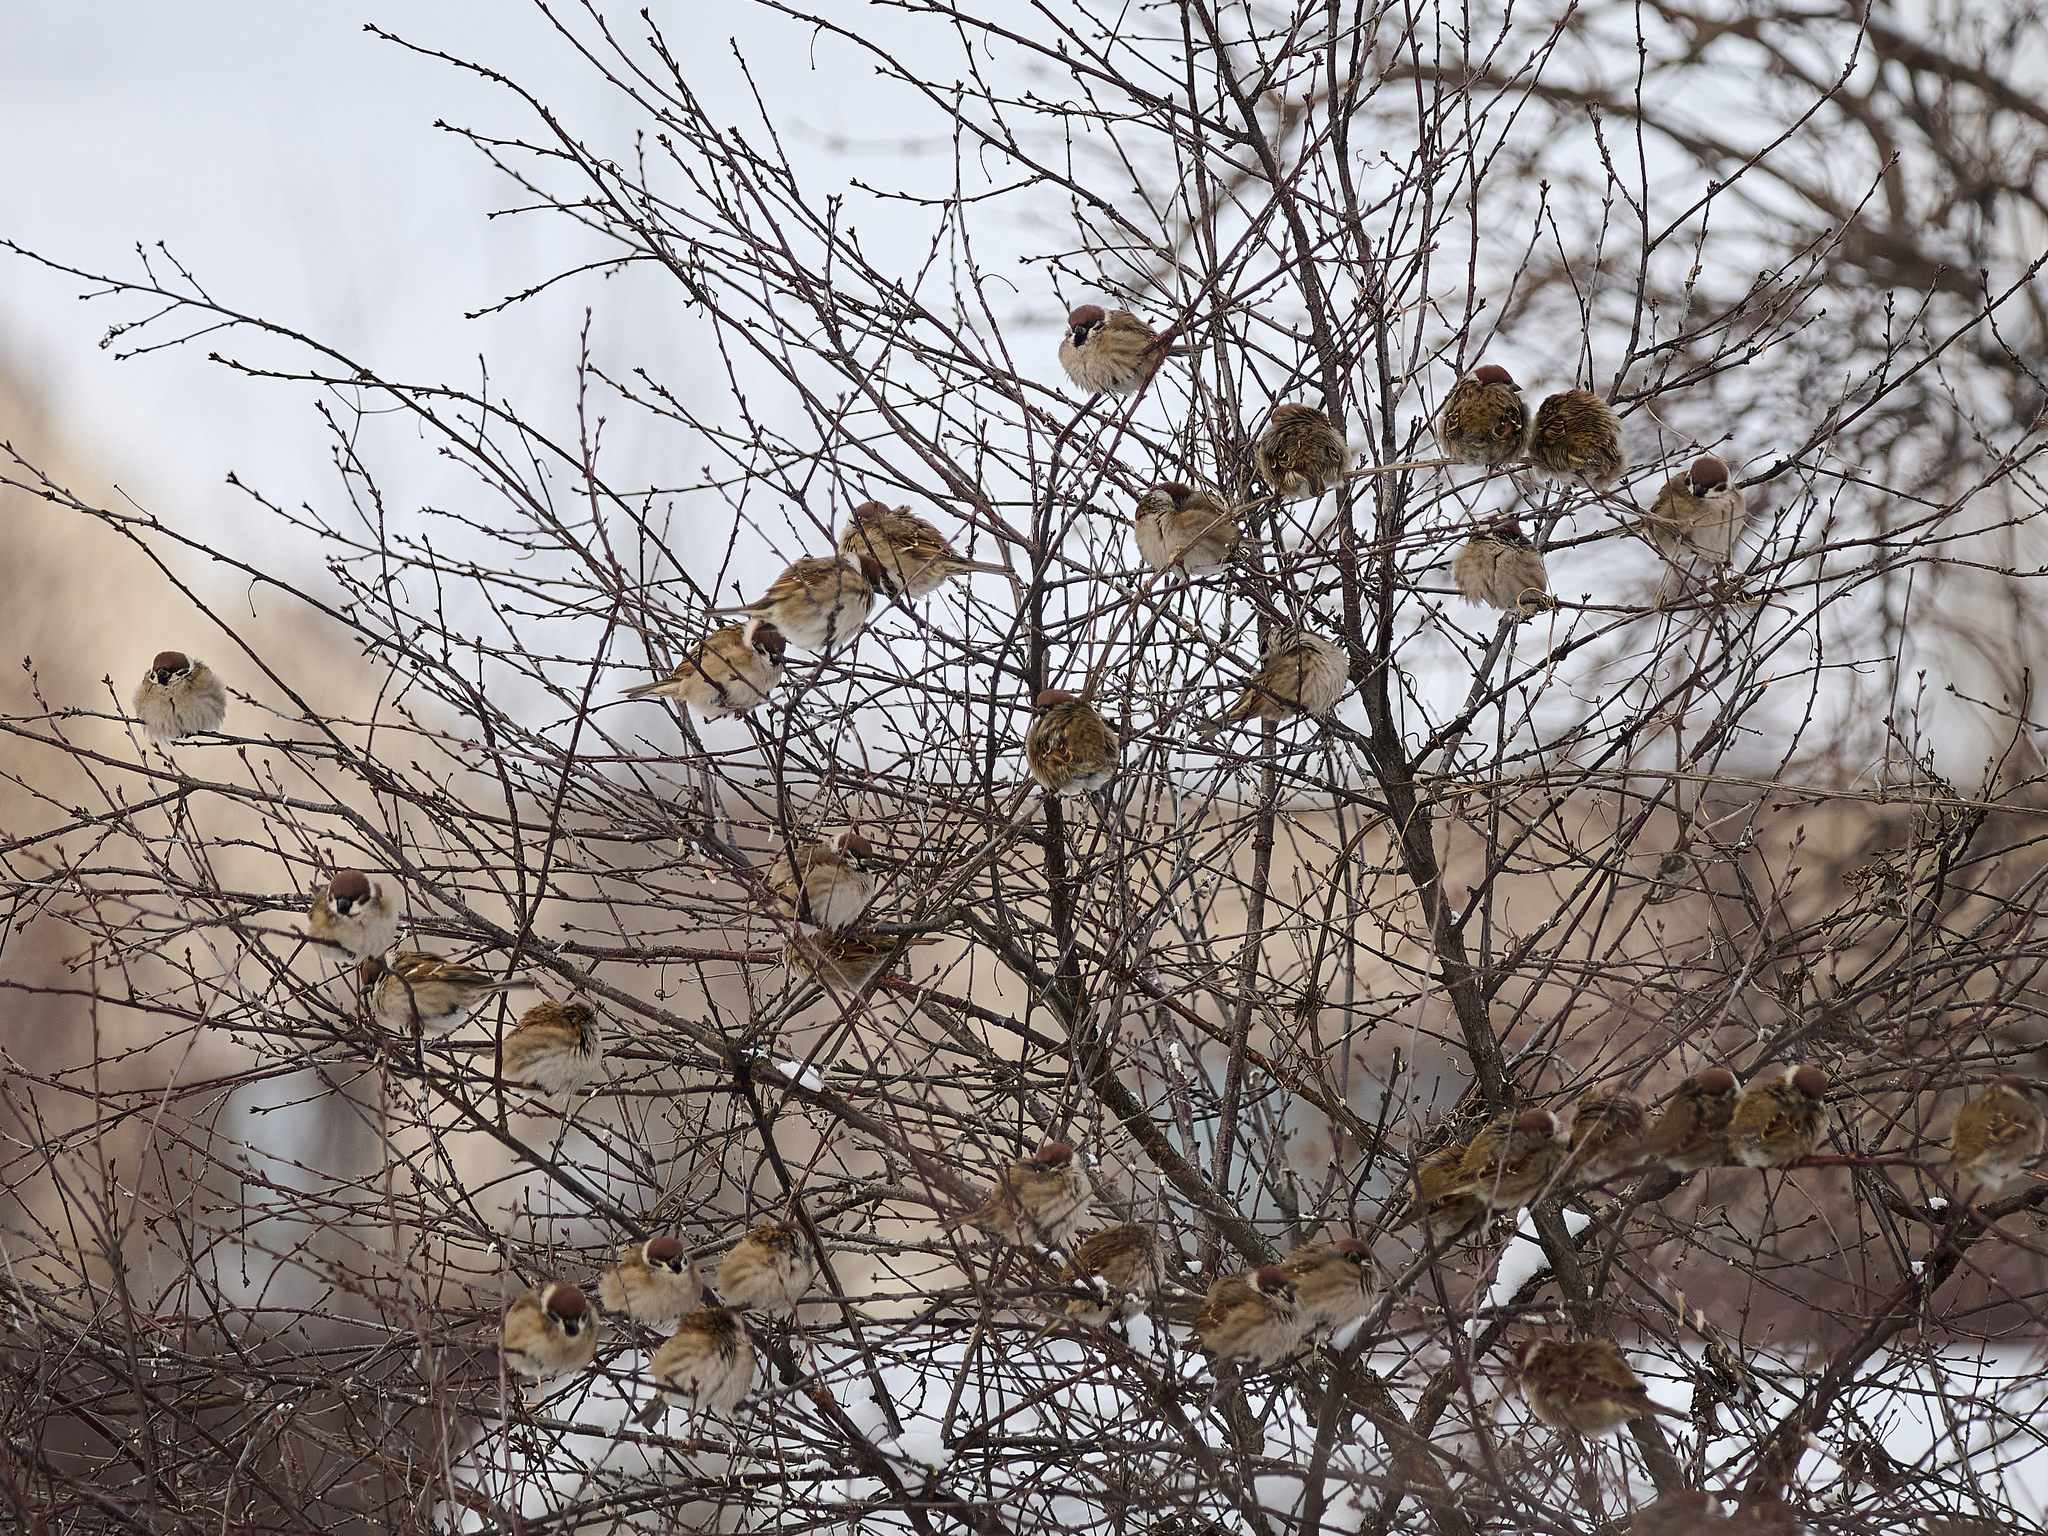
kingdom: Animalia
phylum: Chordata
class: Aves
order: Passeriformes
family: Passeridae
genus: Passer
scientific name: Passer montanus
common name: Eurasian tree sparrow
